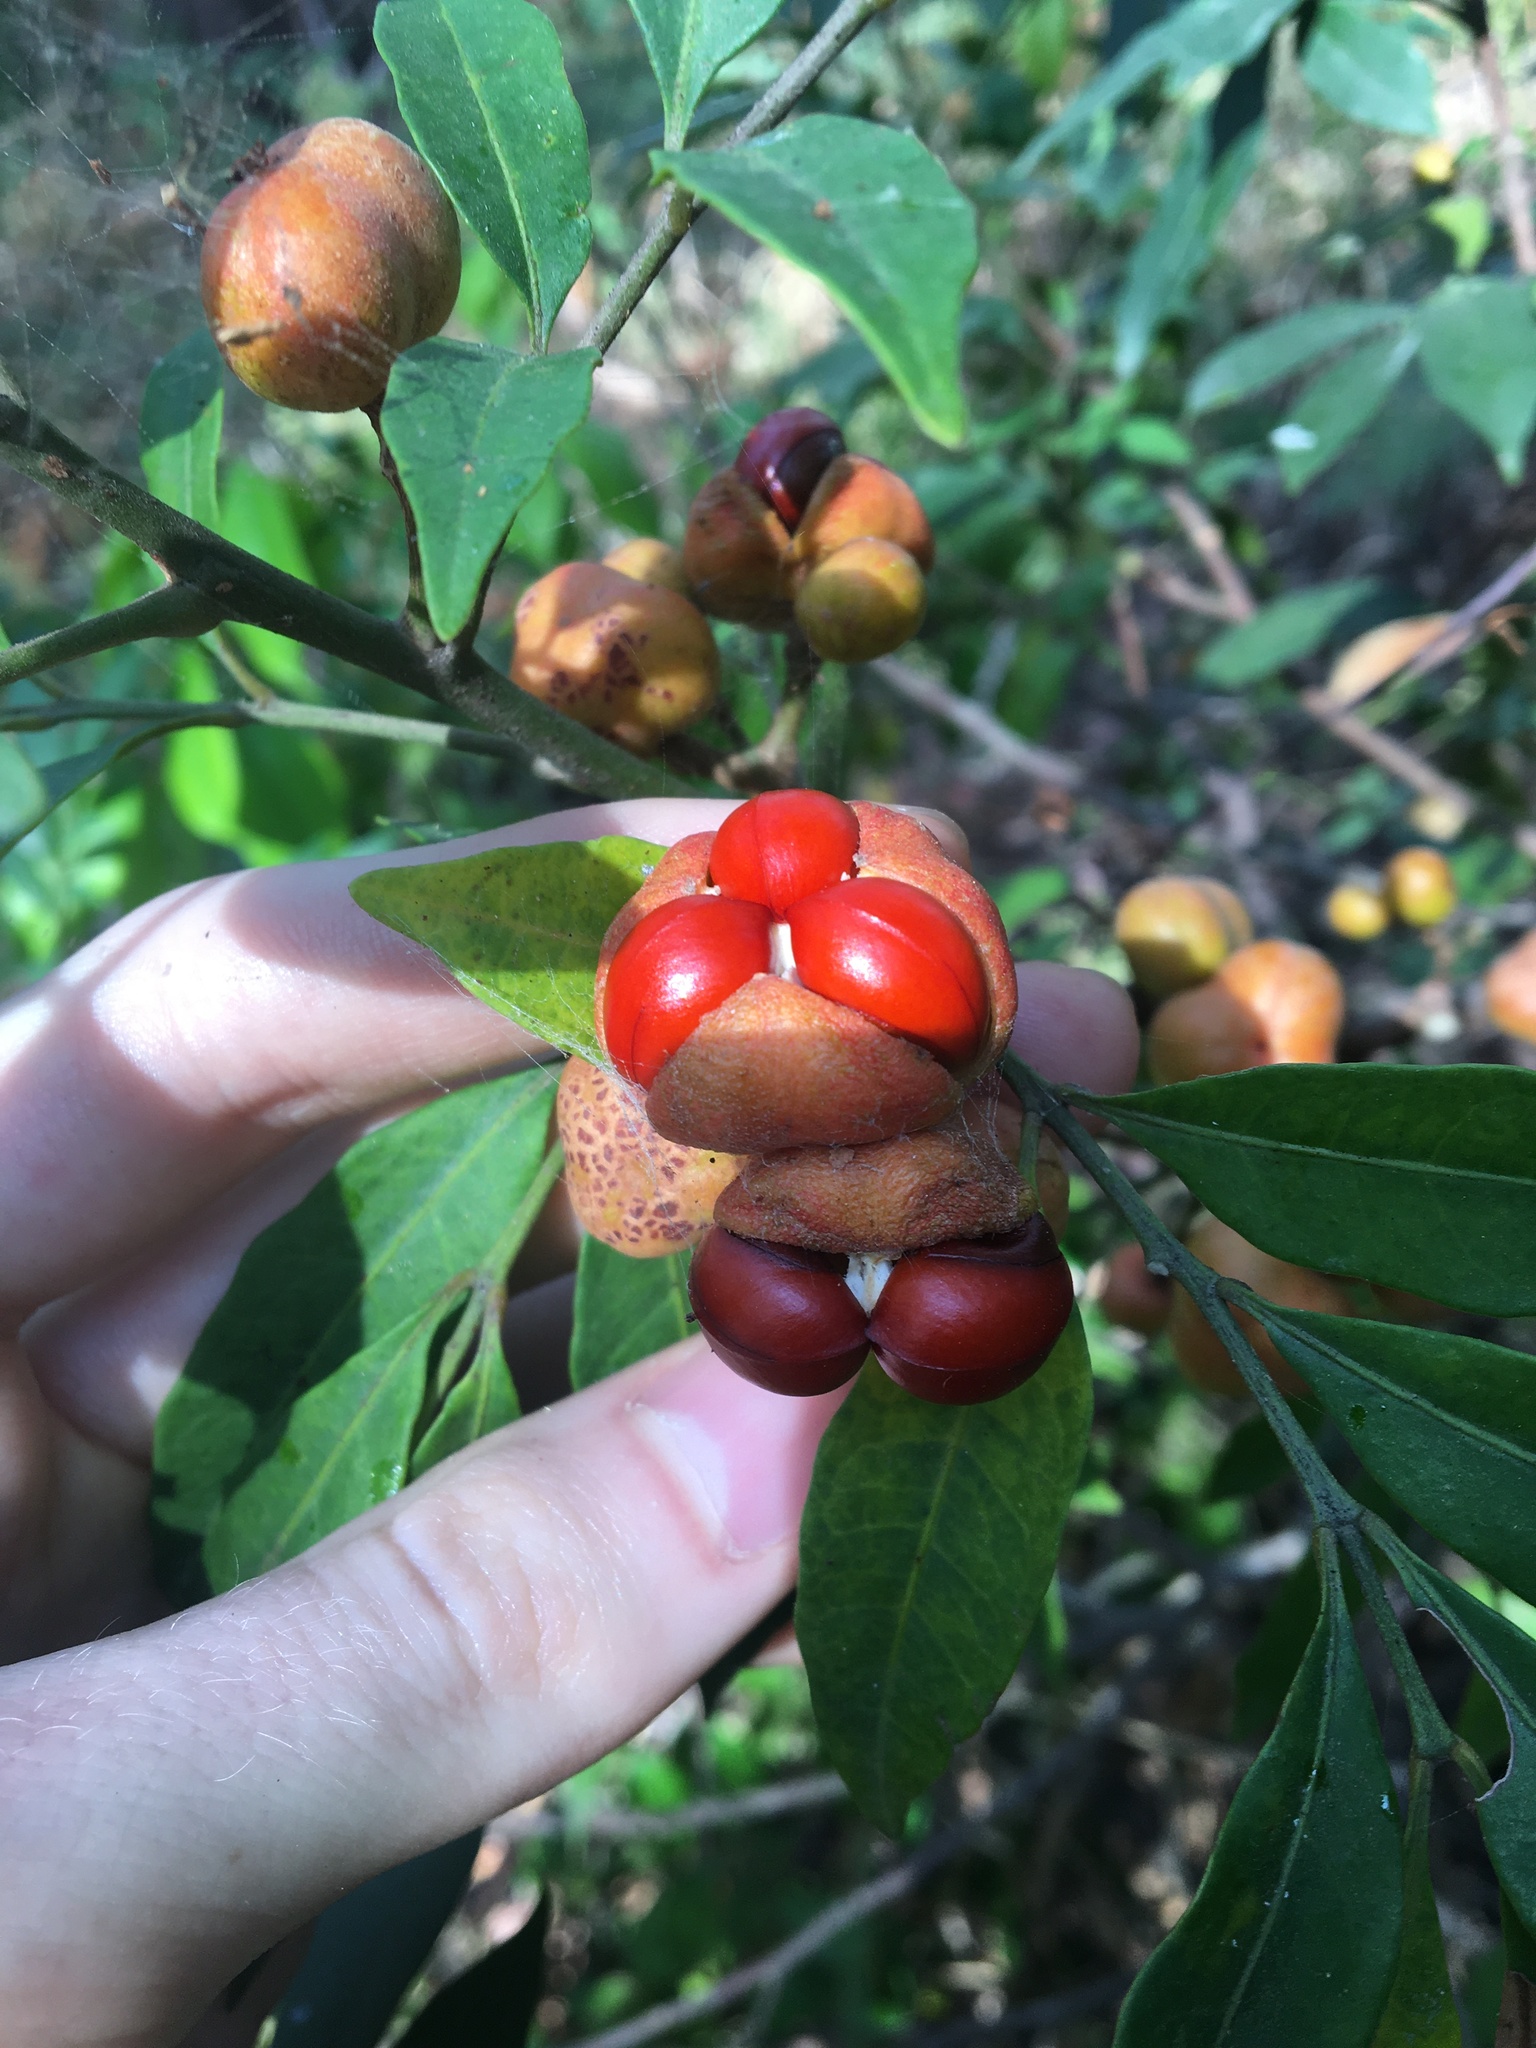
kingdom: Plantae
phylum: Tracheophyta
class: Magnoliopsida
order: Sapindales
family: Meliaceae
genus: Synoum
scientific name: Synoum glandulosum
